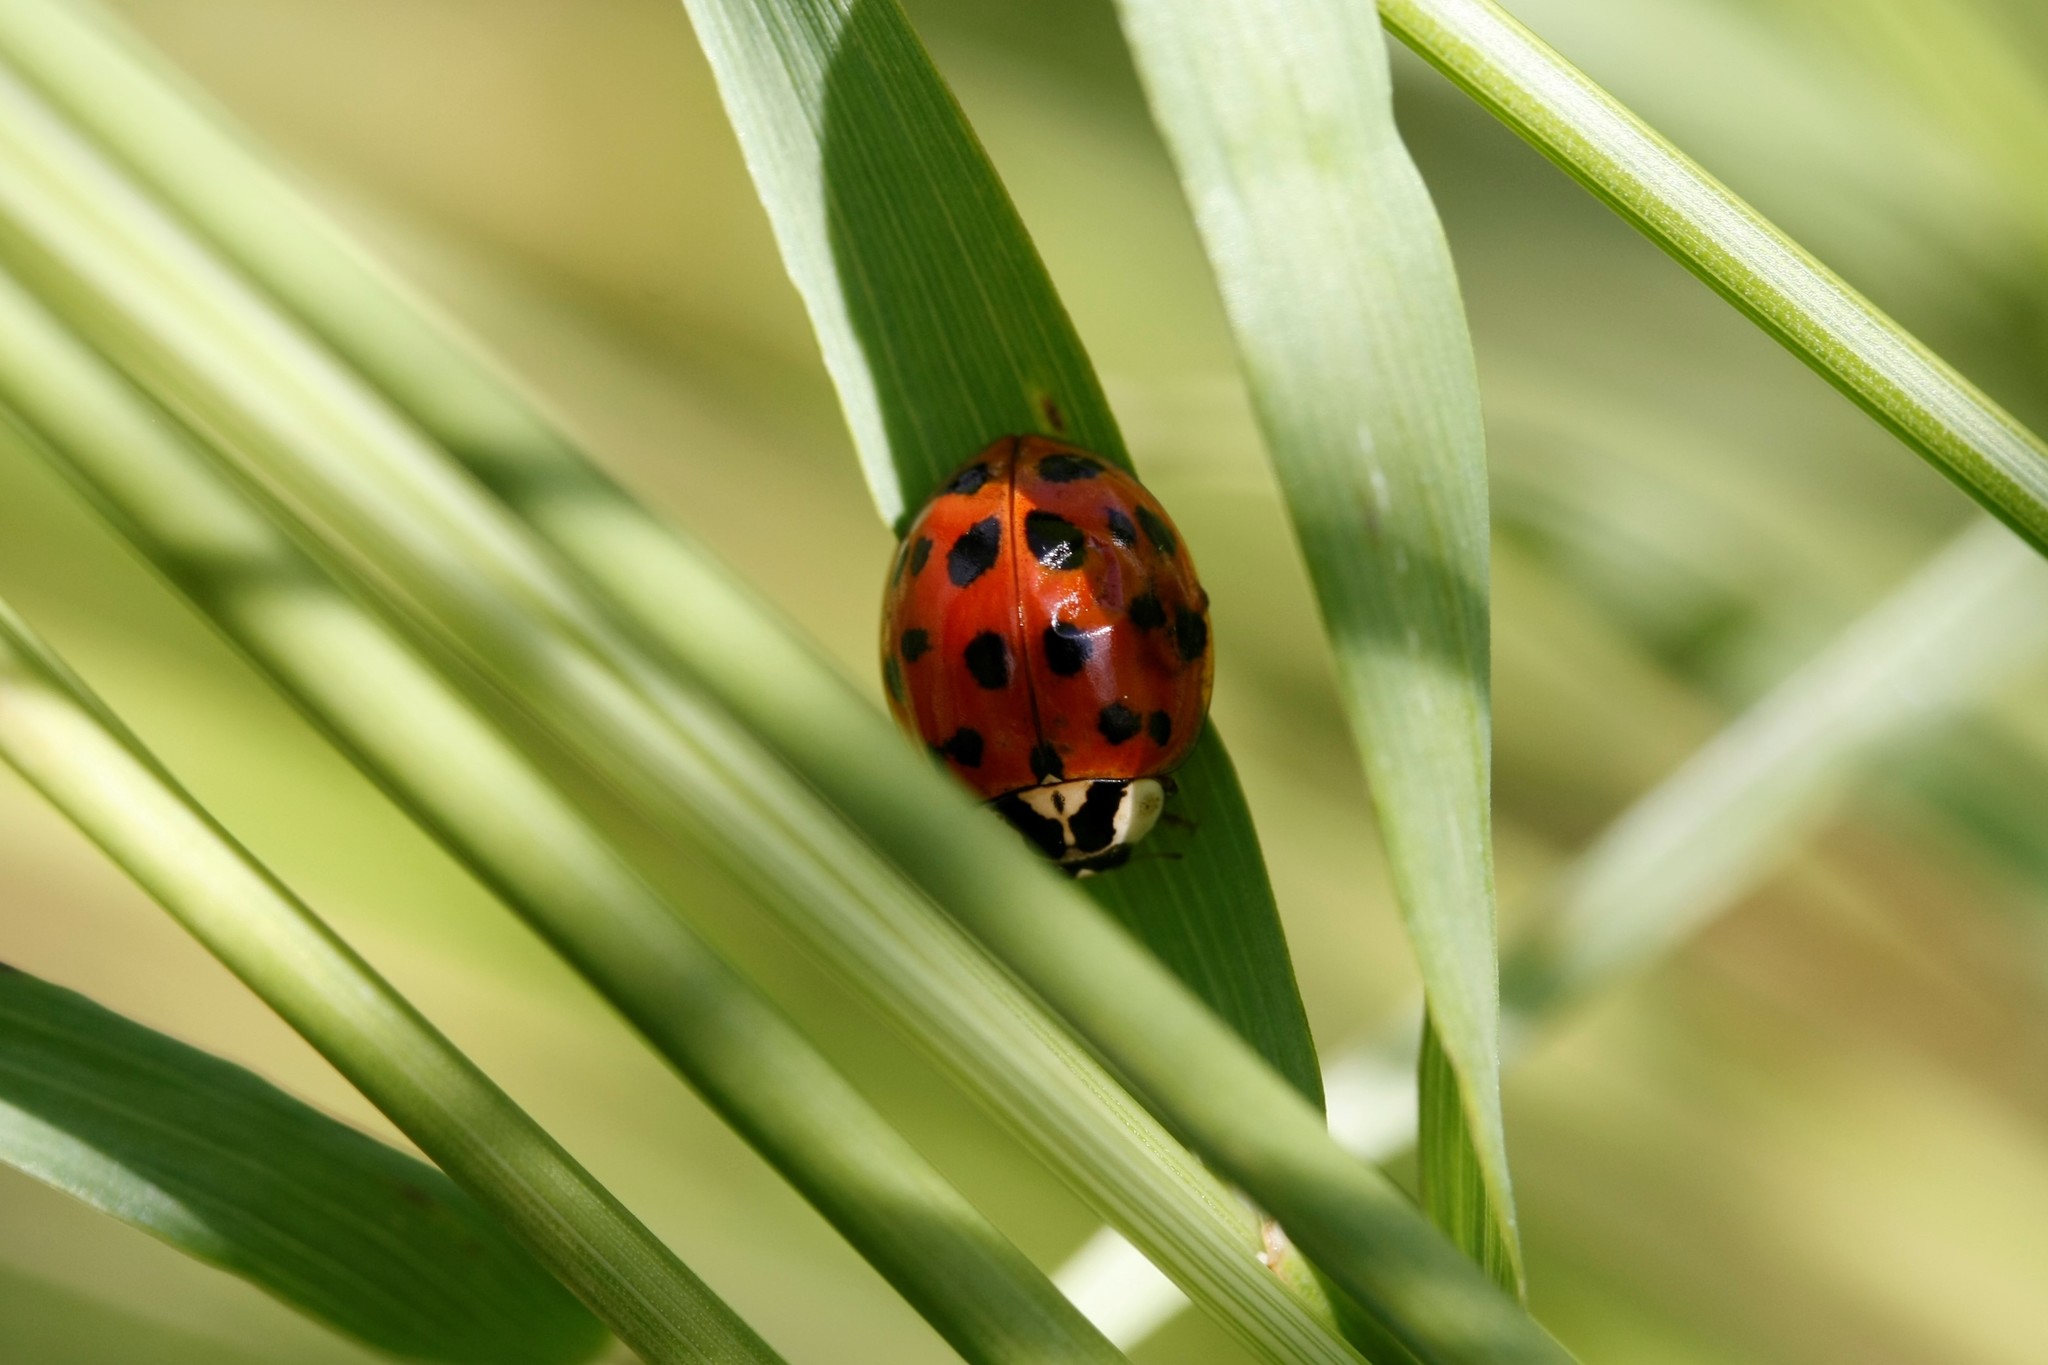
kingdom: Animalia
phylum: Arthropoda
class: Insecta
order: Coleoptera
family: Coccinellidae
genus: Harmonia
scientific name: Harmonia axyridis
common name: Harlequin ladybird
